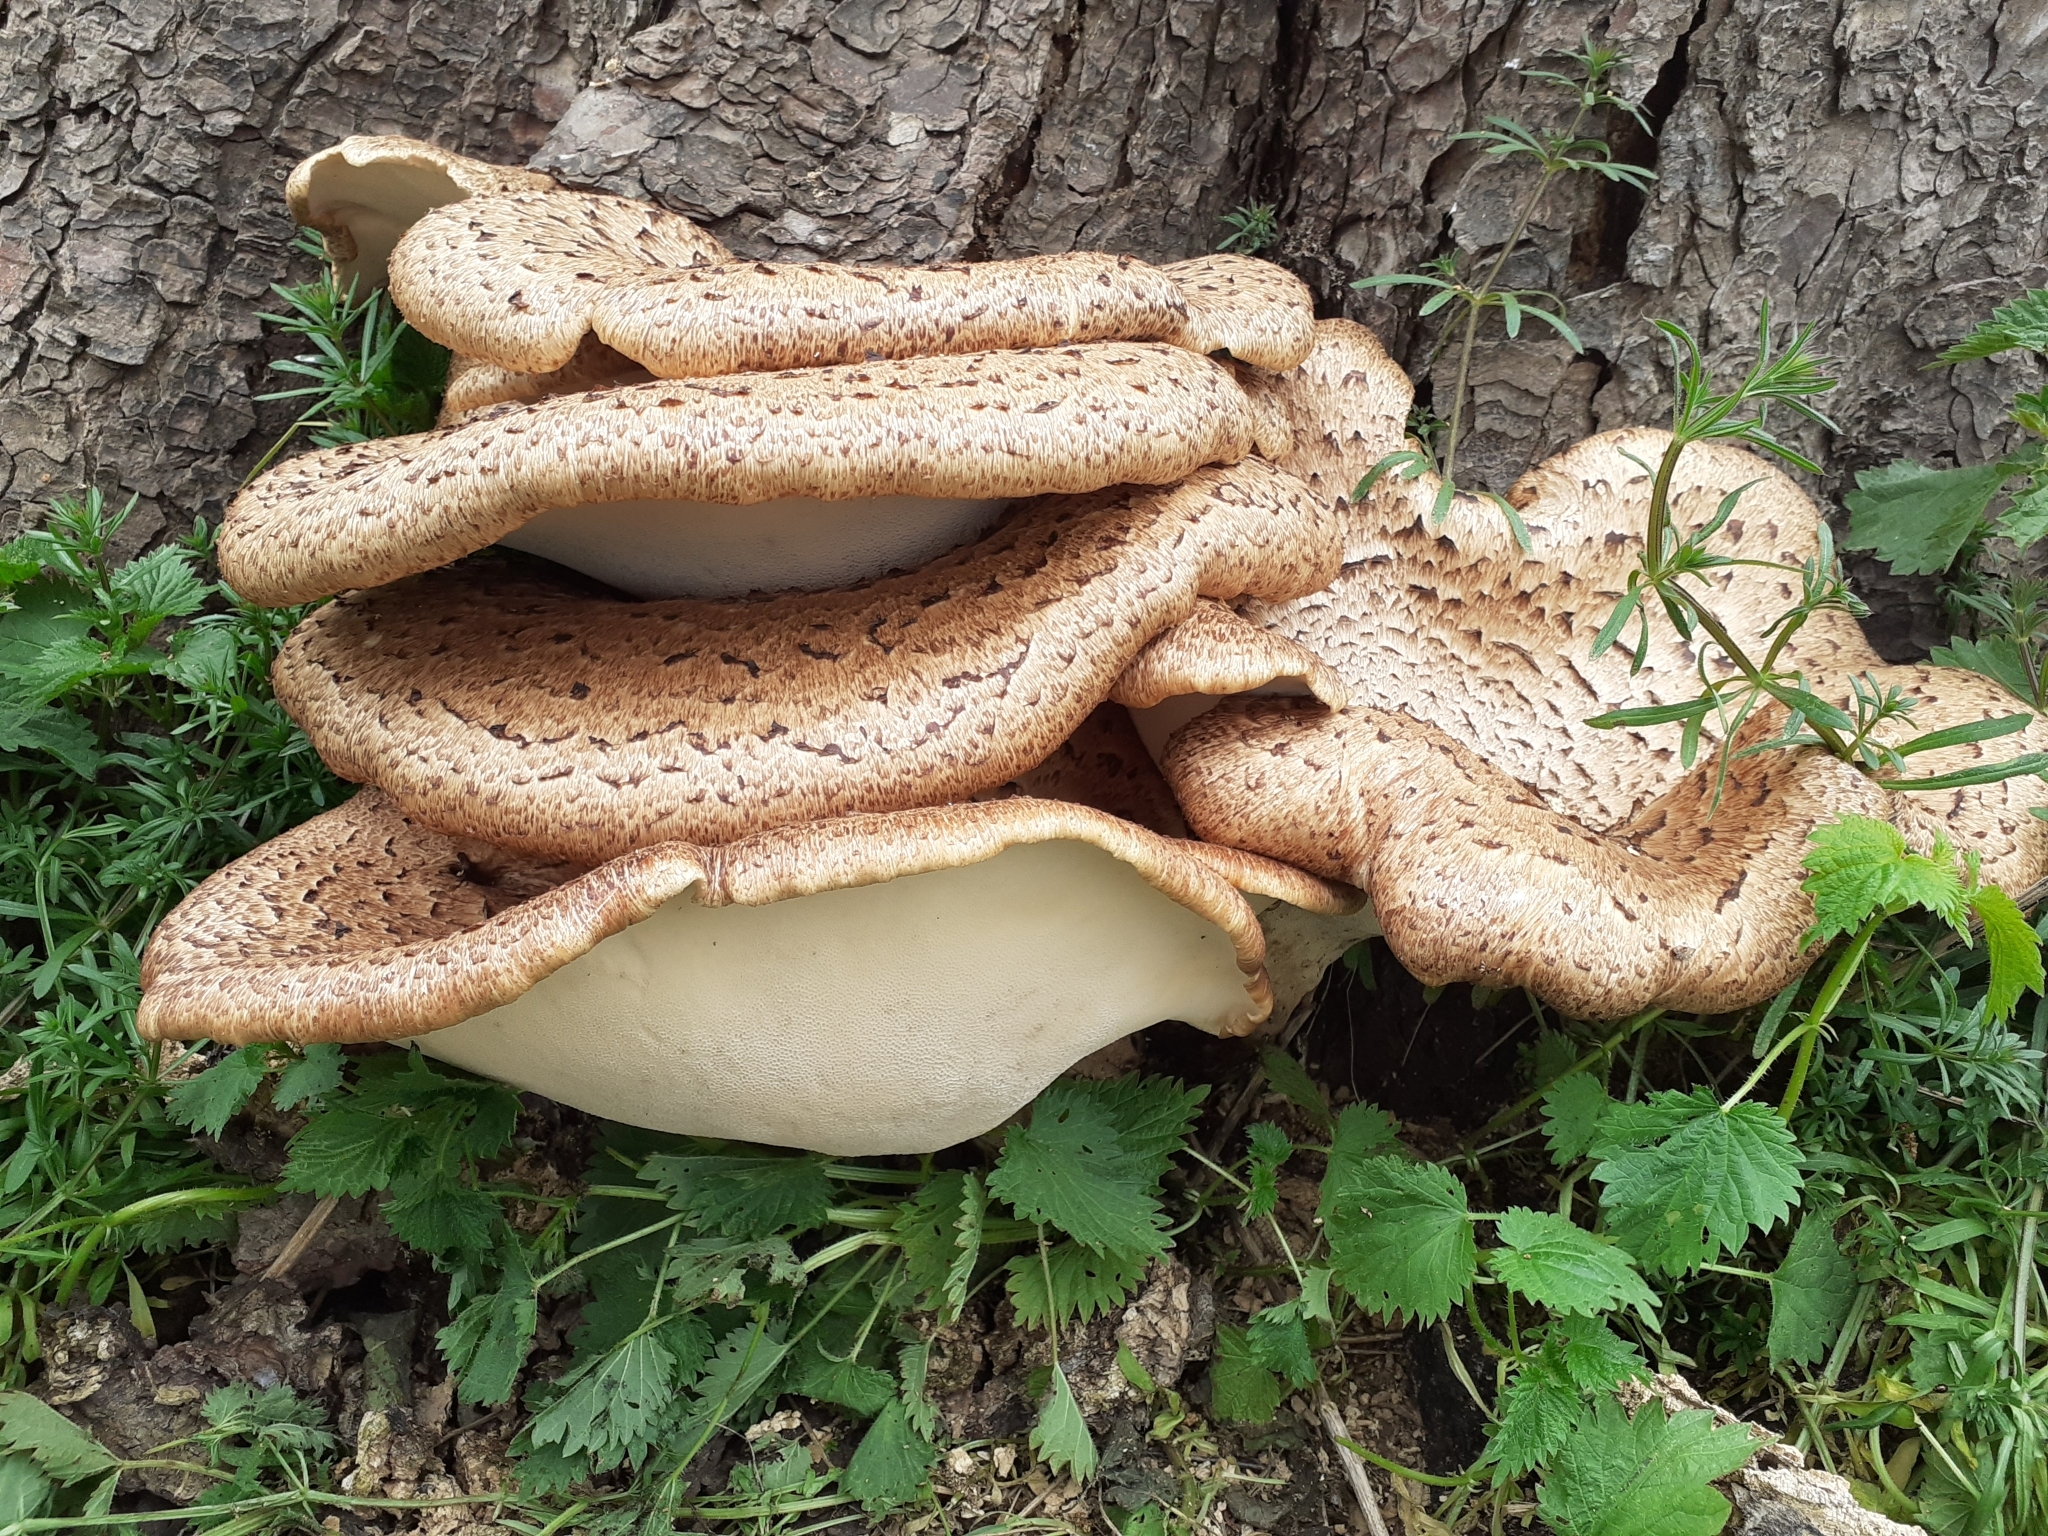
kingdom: Fungi
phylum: Basidiomycota
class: Agaricomycetes
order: Polyporales
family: Polyporaceae
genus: Cerioporus
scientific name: Cerioporus squamosus
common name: Dryad's saddle
